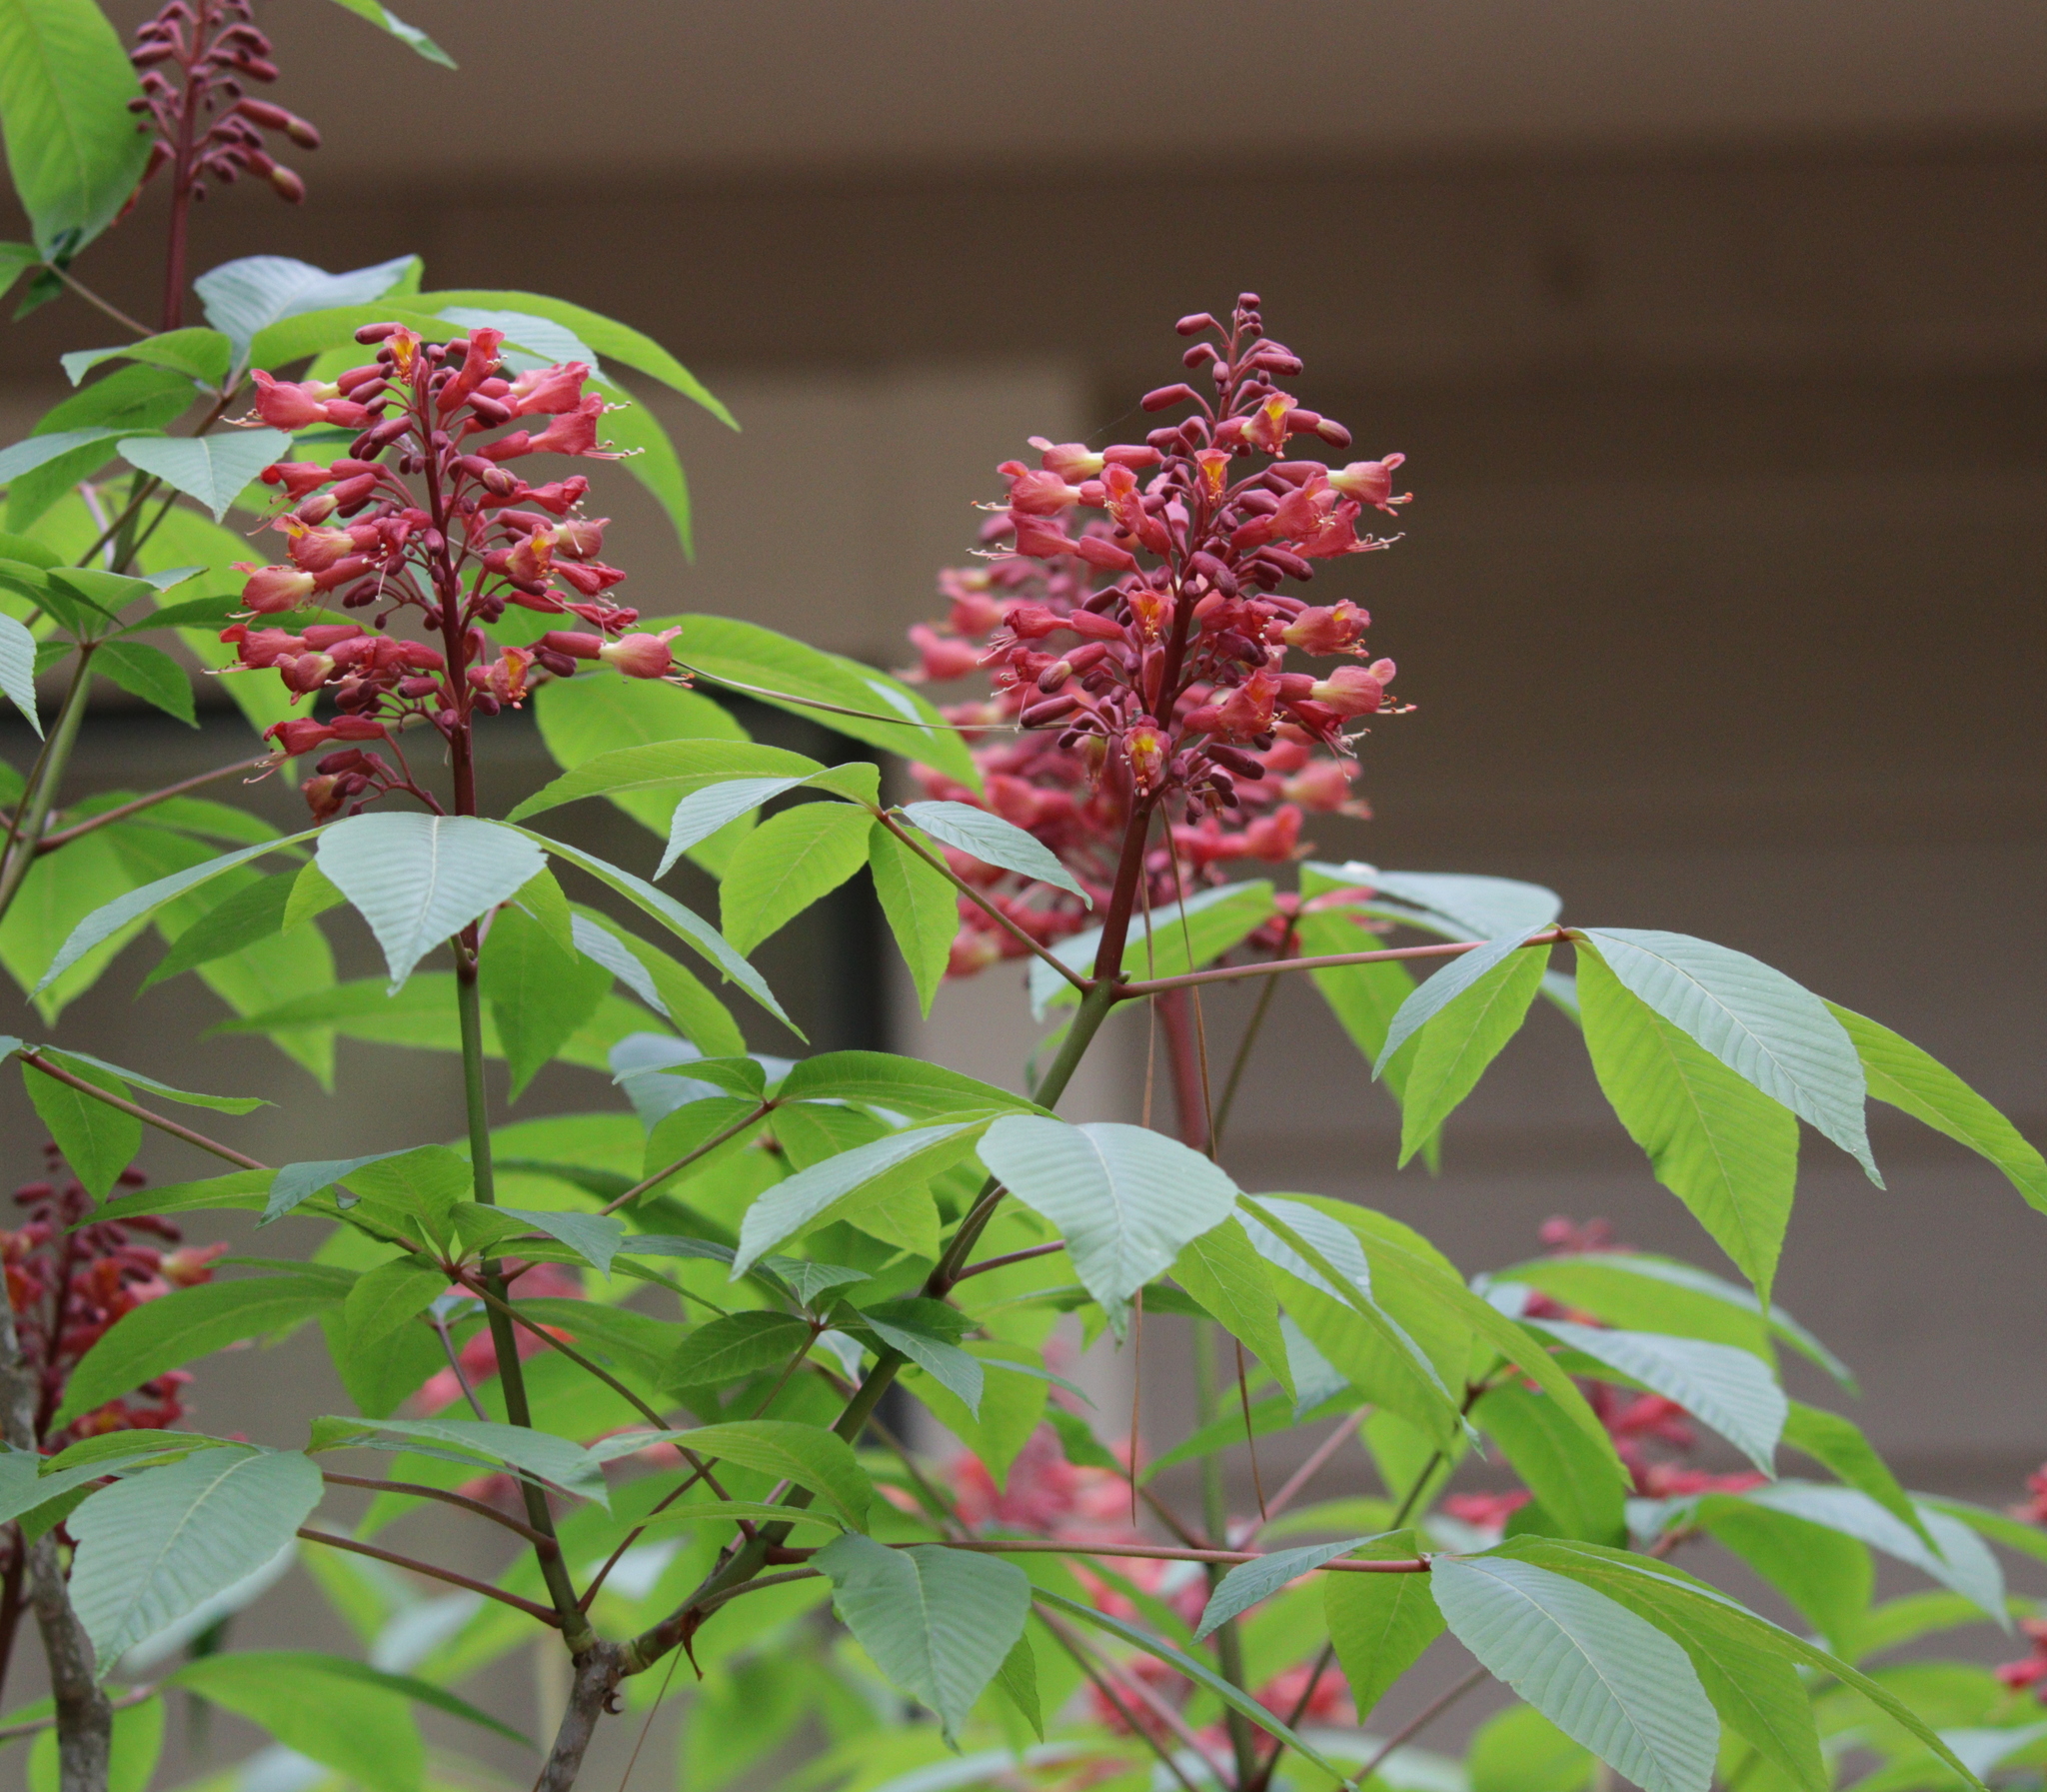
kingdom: Plantae
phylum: Tracheophyta
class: Magnoliopsida
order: Sapindales
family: Sapindaceae
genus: Aesculus
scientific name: Aesculus pavia
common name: Red buckeye
